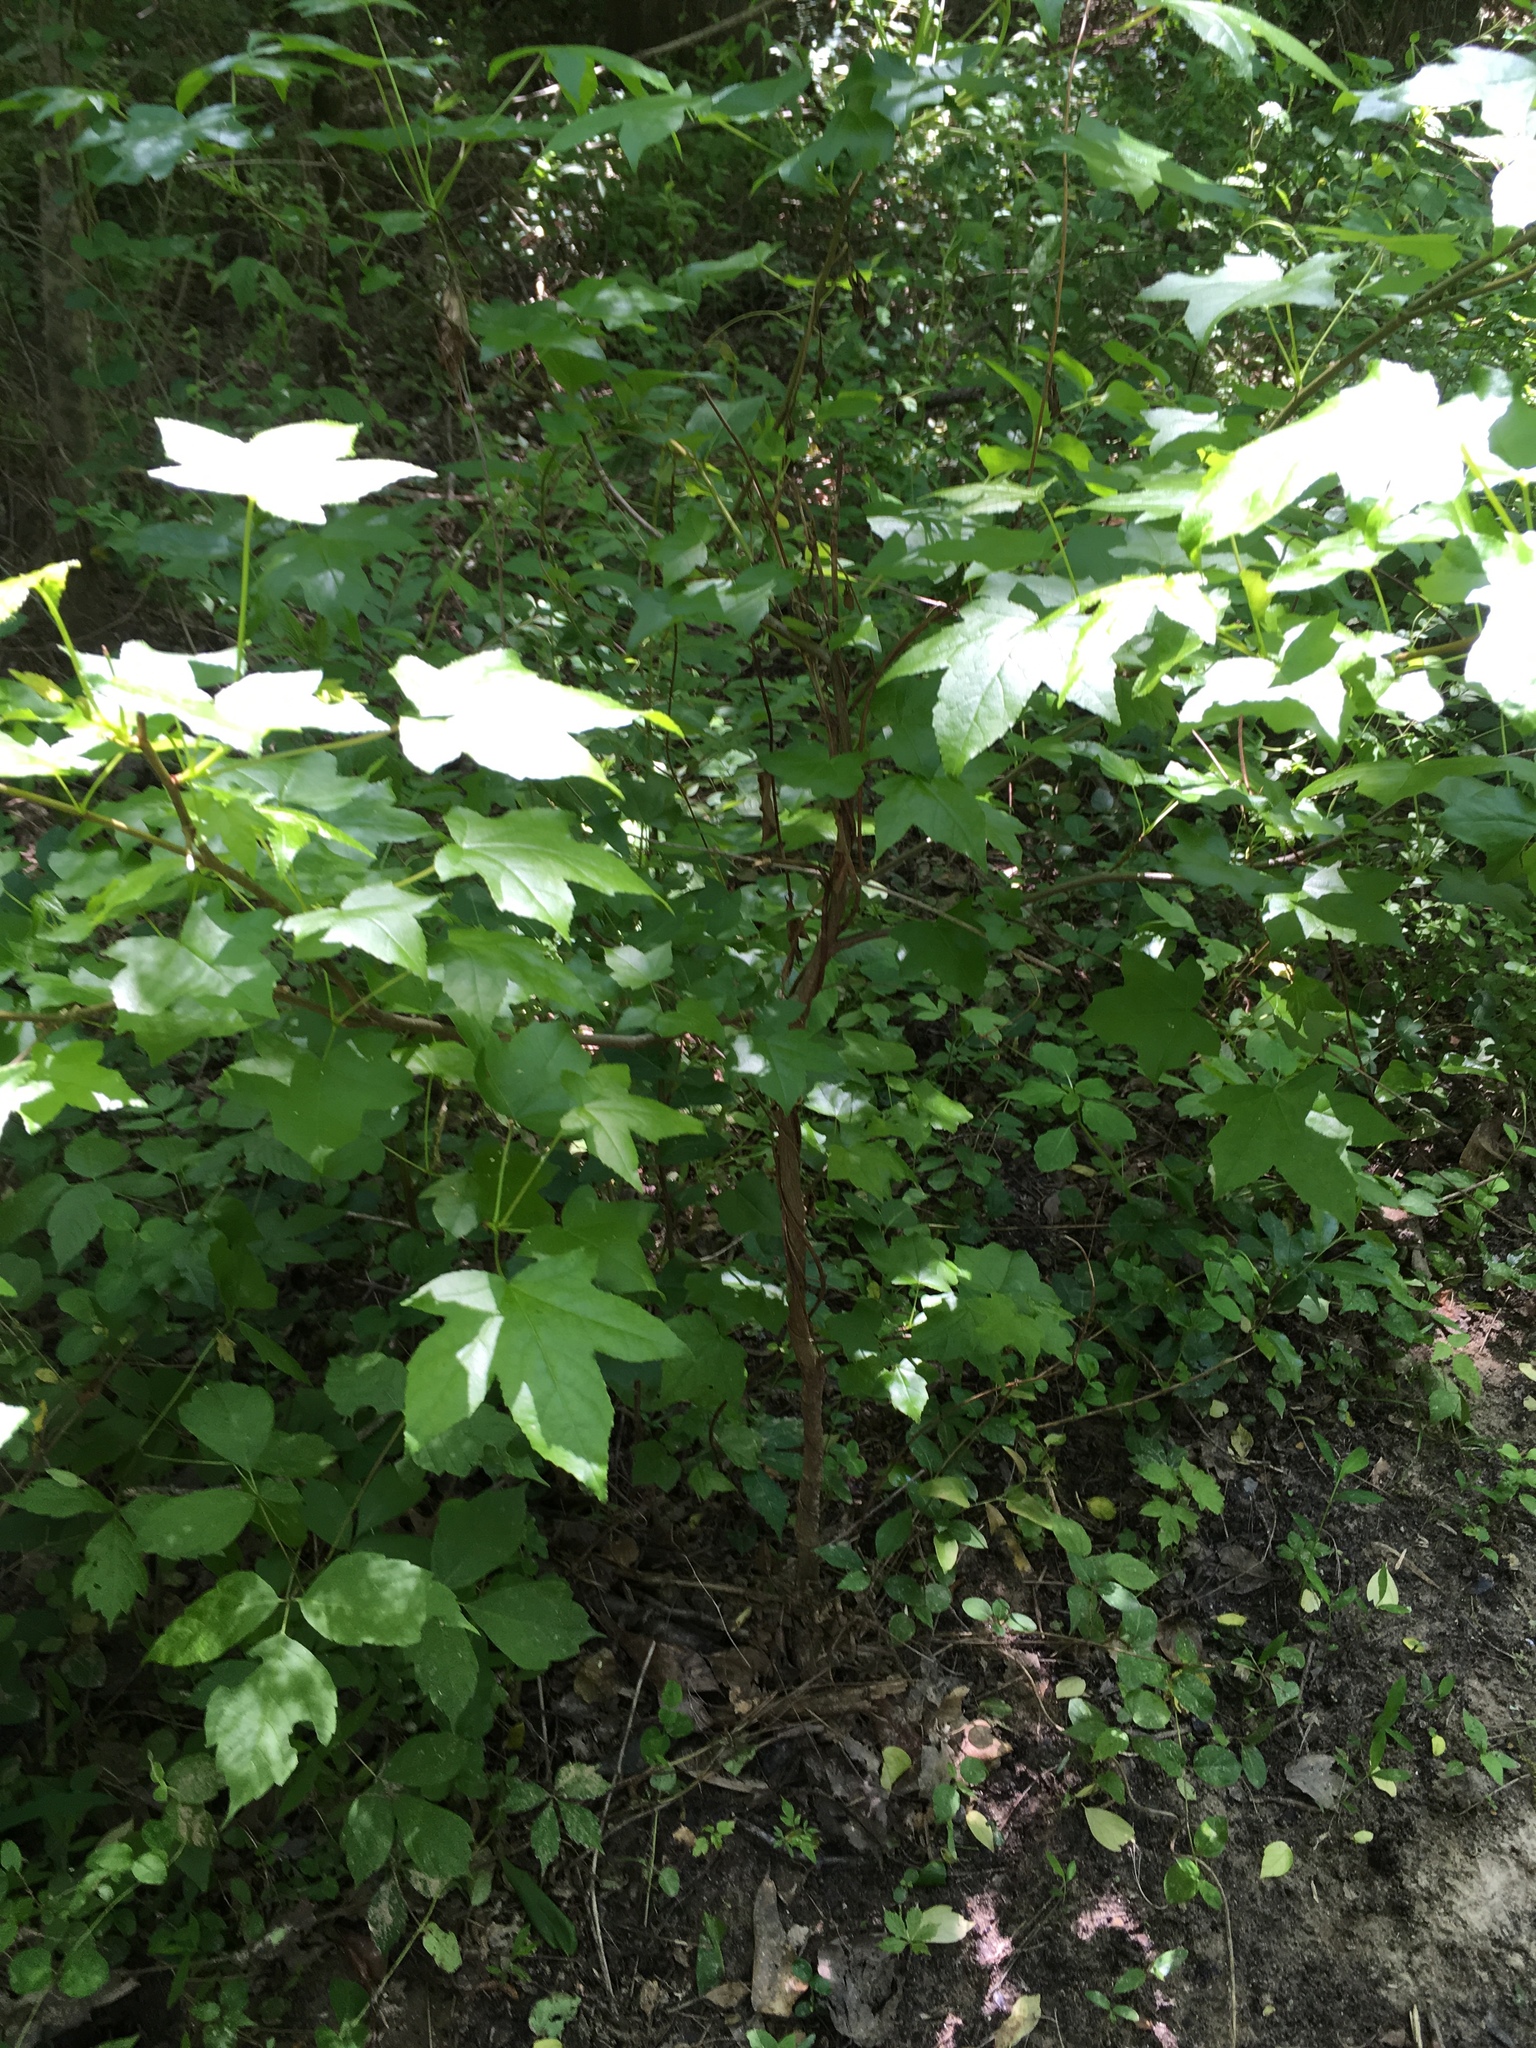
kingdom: Plantae
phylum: Tracheophyta
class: Magnoliopsida
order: Saxifragales
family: Altingiaceae
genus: Liquidambar
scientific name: Liquidambar styraciflua
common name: Sweet gum
